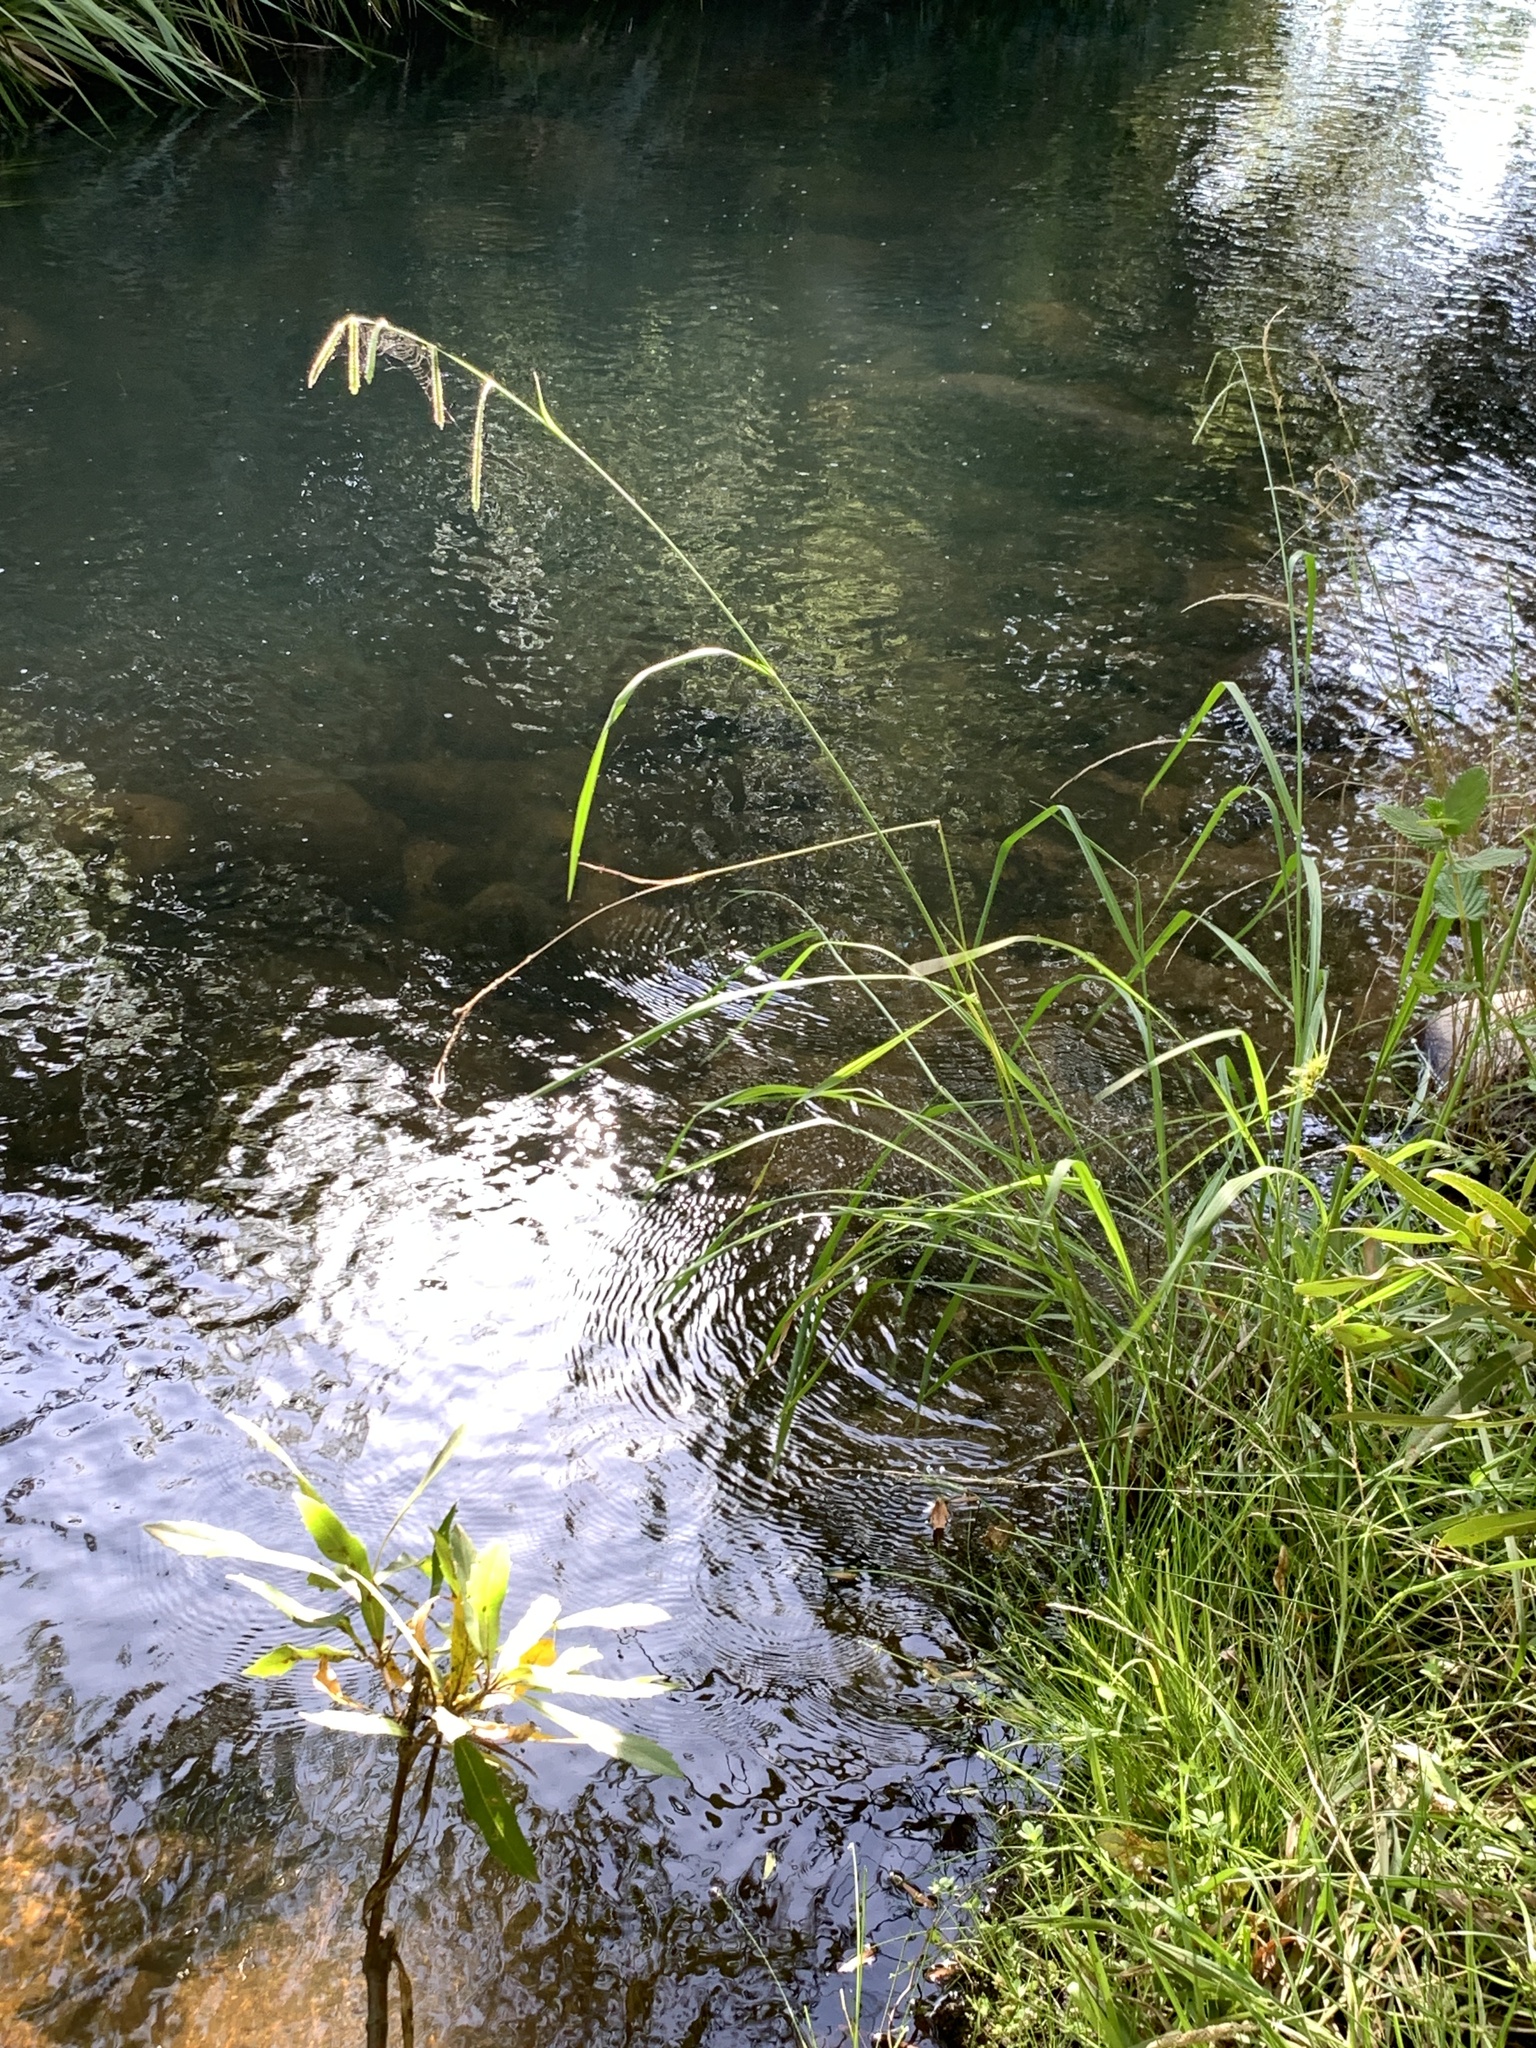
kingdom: Plantae
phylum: Tracheophyta
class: Liliopsida
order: Poales
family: Poaceae
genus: Paspalum
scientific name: Paspalum urvillei
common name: Vasey's grass
